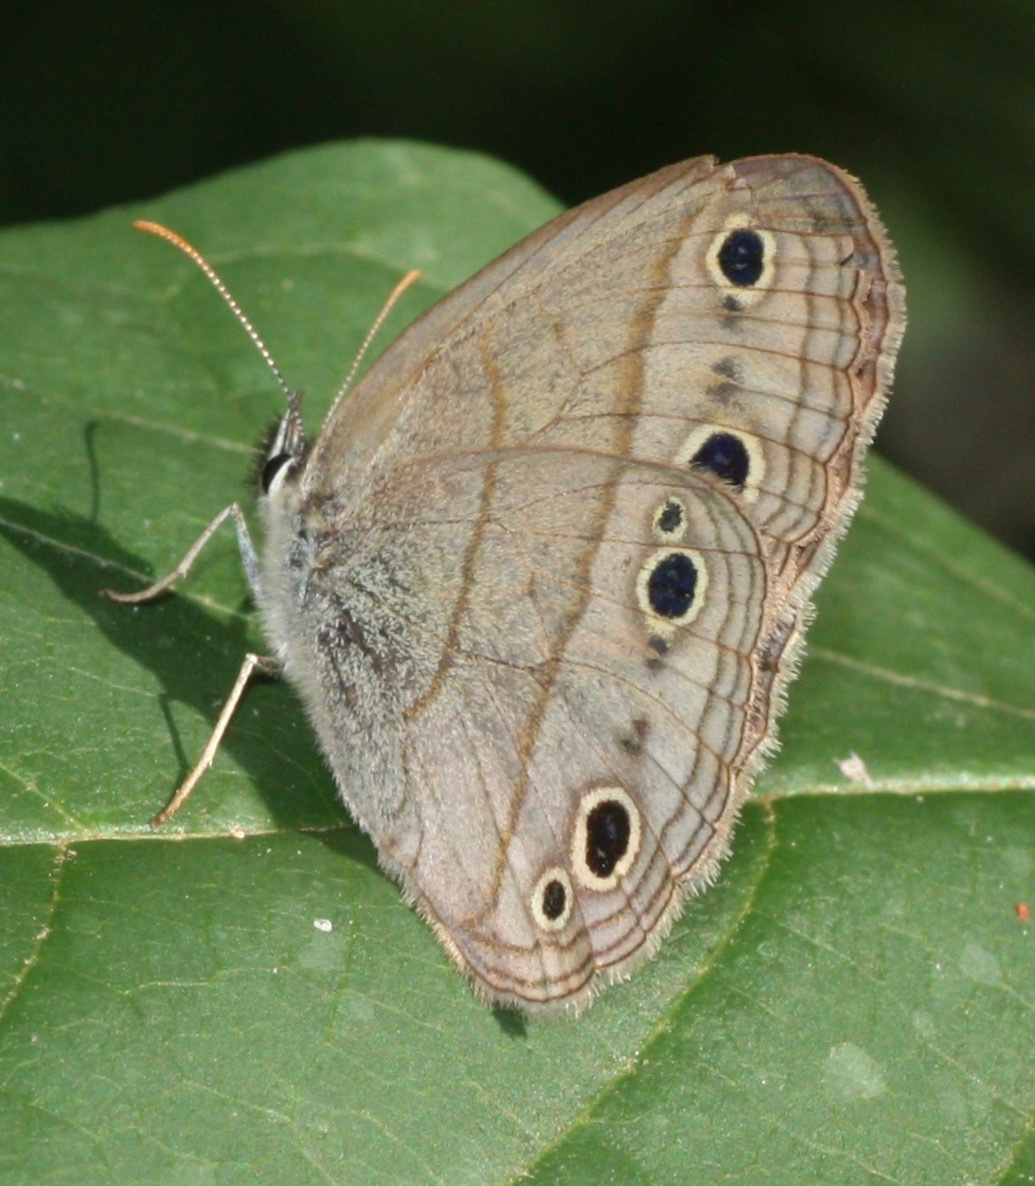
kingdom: Animalia
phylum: Arthropoda
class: Insecta
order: Lepidoptera
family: Nymphalidae
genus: Euptychia
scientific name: Euptychia cymela
